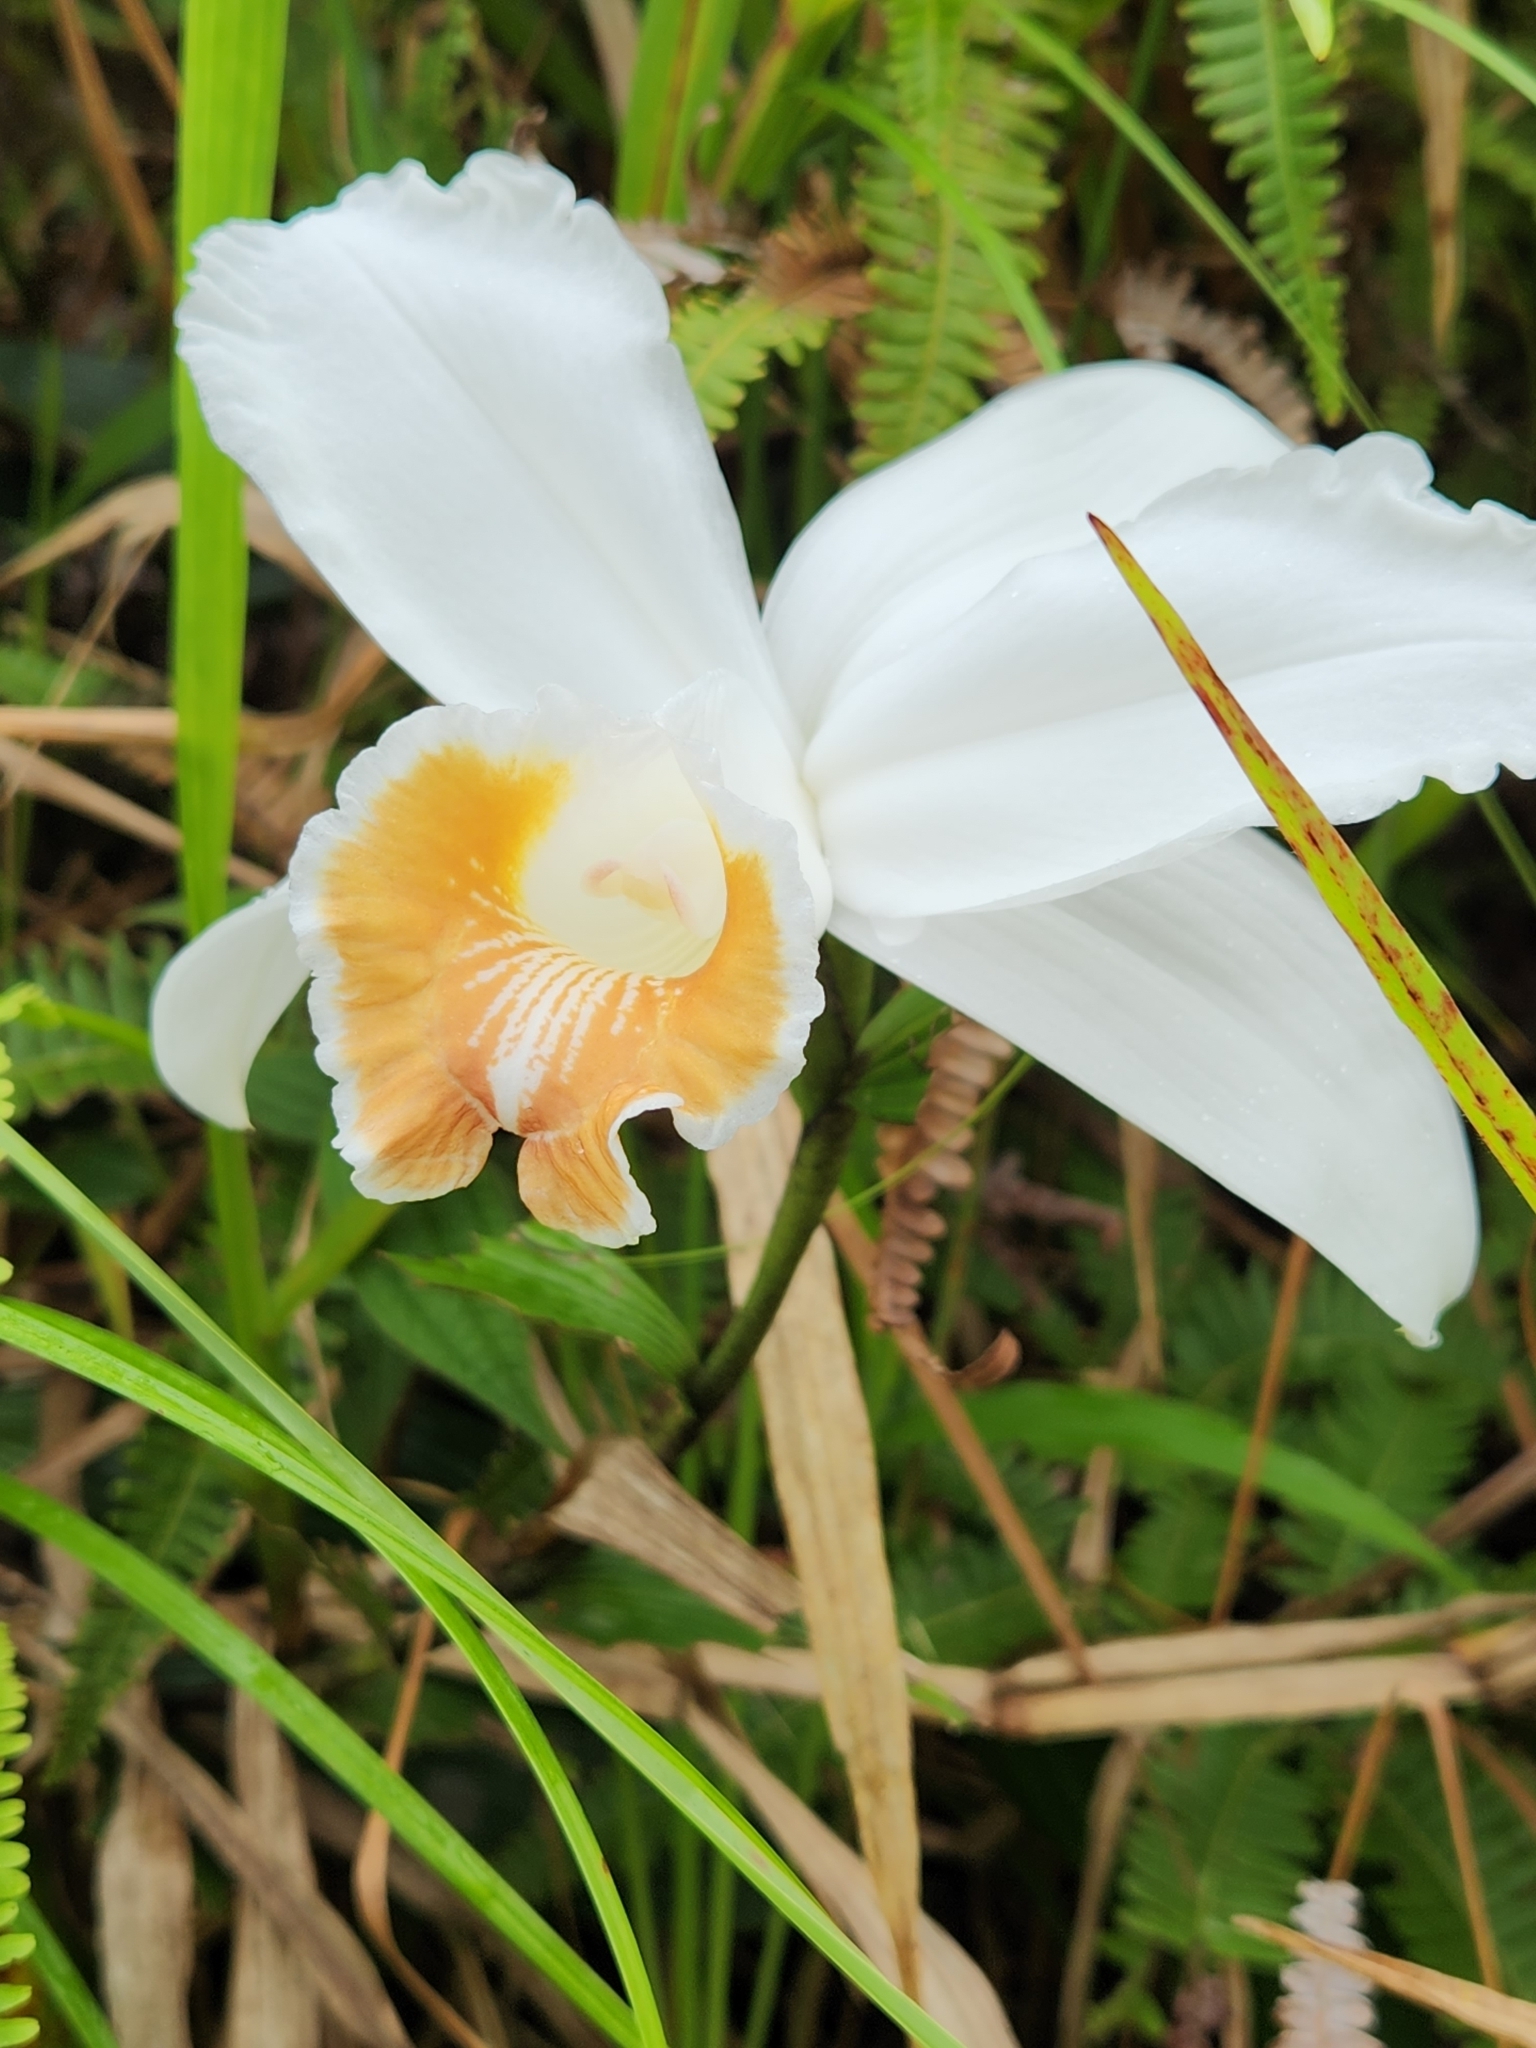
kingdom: Plantae
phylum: Tracheophyta
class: Liliopsida
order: Asparagales
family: Orchidaceae
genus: Sobralia
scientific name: Sobralia chrysostoma
